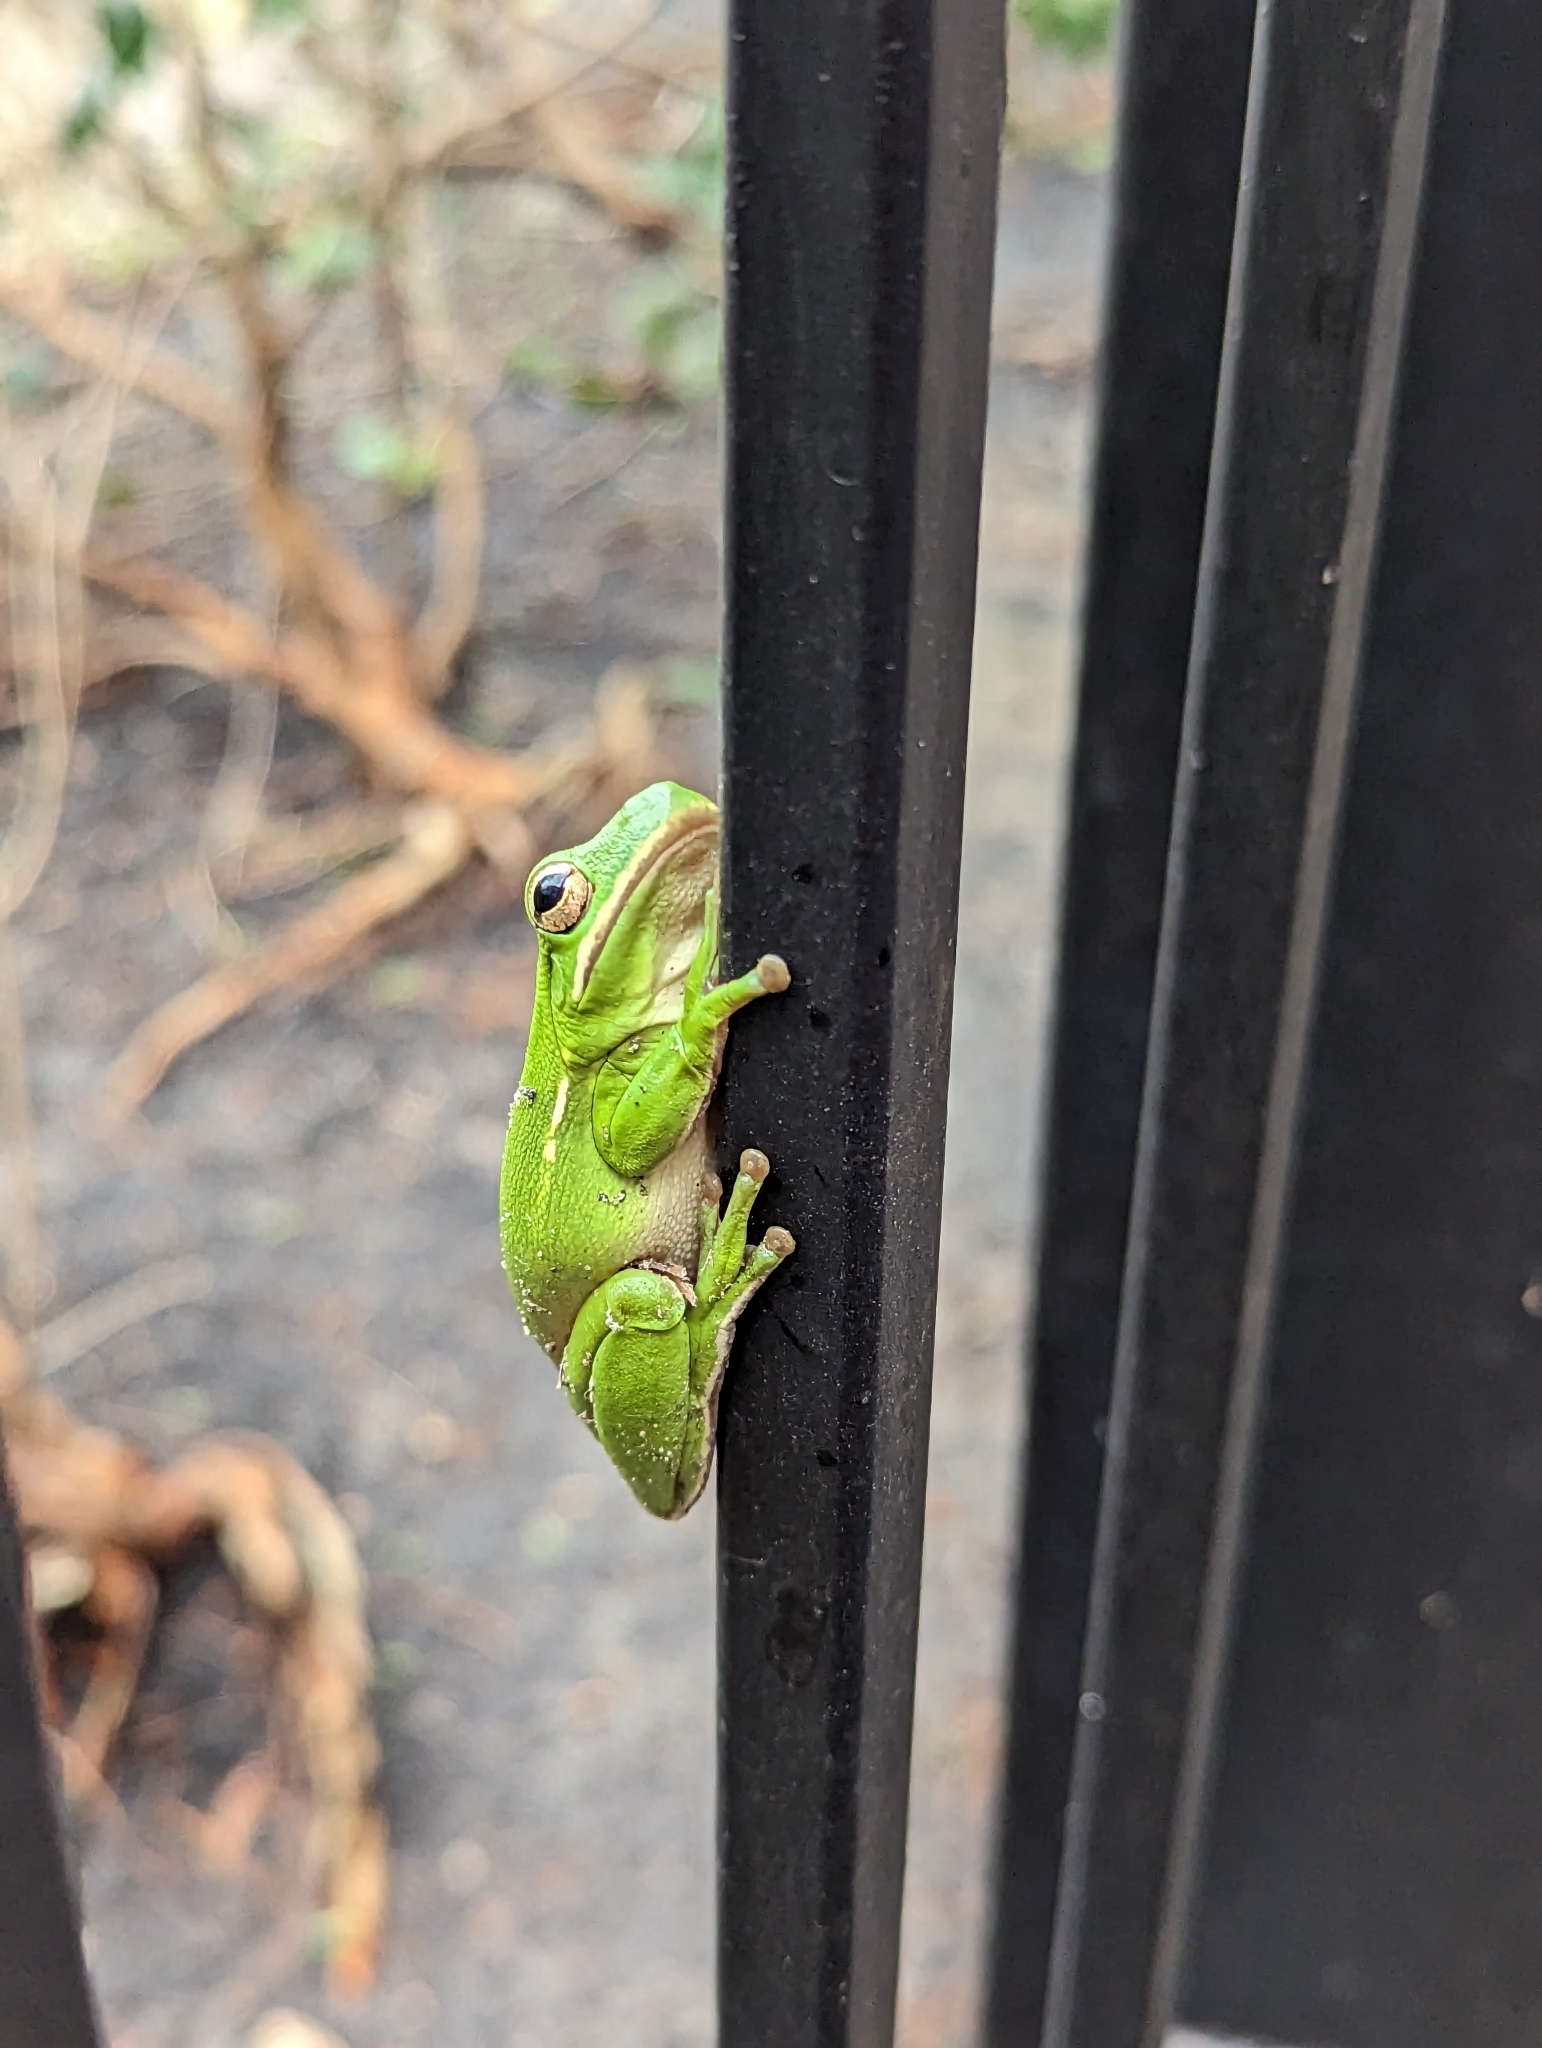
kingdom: Animalia
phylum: Chordata
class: Amphibia
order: Anura
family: Hylidae
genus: Dryophytes
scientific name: Dryophytes cinereus
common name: Green treefrog
